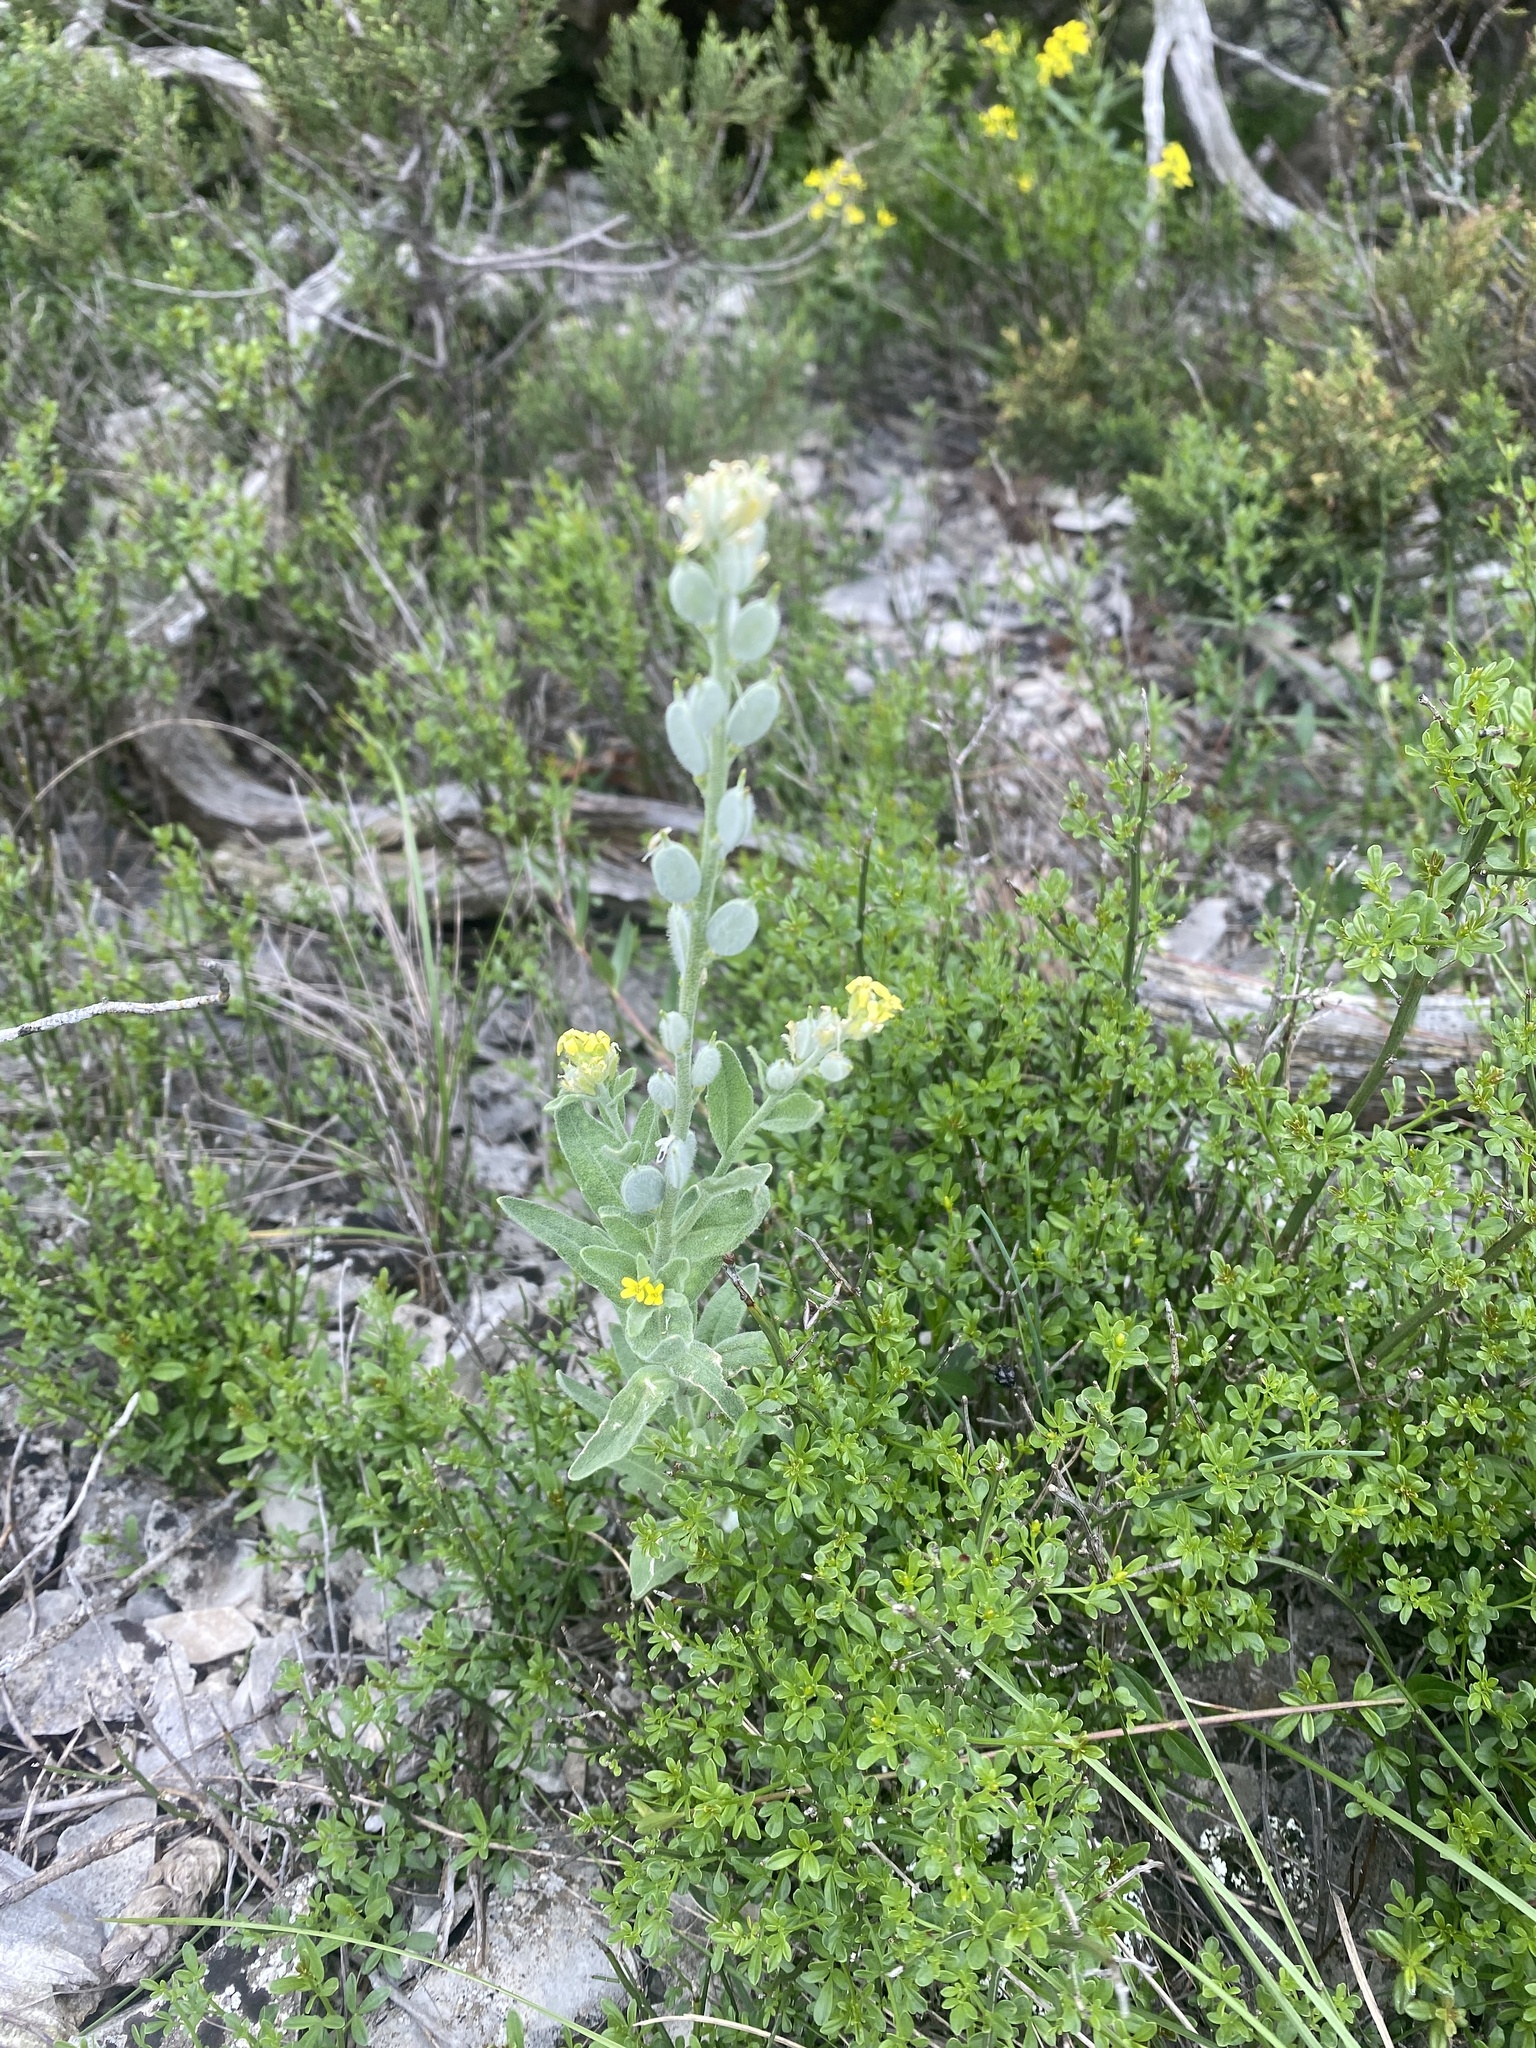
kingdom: Plantae
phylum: Tracheophyta
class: Magnoliopsida
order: Brassicales
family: Brassicaceae
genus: Fibigia
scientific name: Fibigia clypeata
